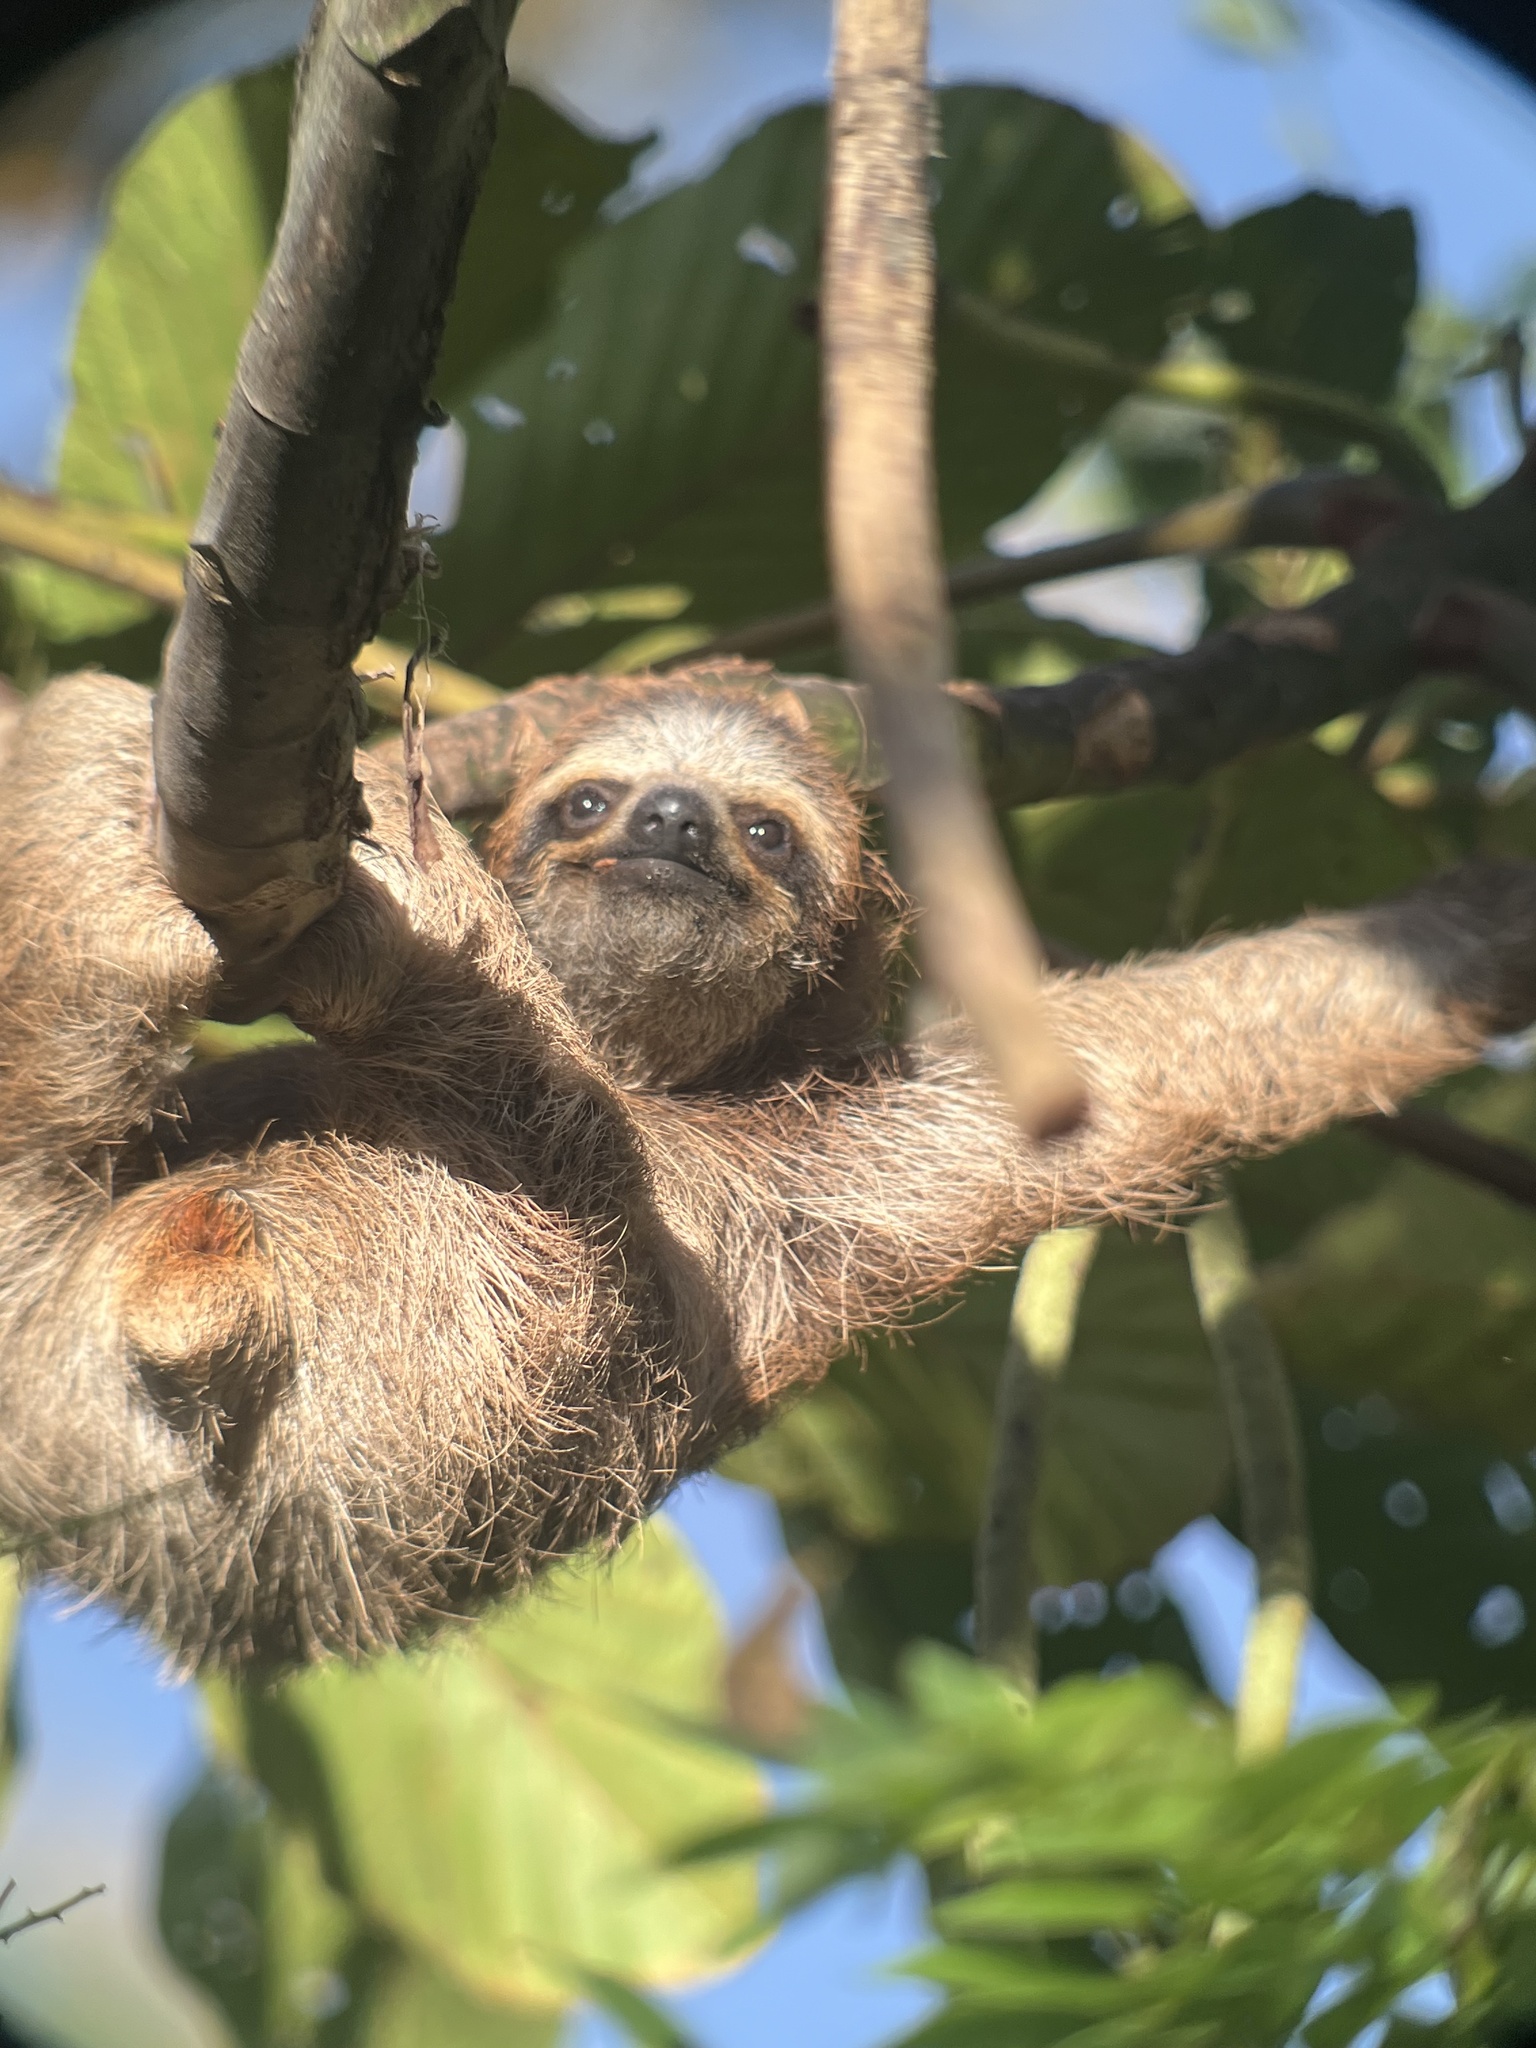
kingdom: Animalia
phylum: Chordata
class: Mammalia
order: Pilosa
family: Bradypodidae
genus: Bradypus
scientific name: Bradypus variegatus
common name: Brown-throated three-toed sloth
